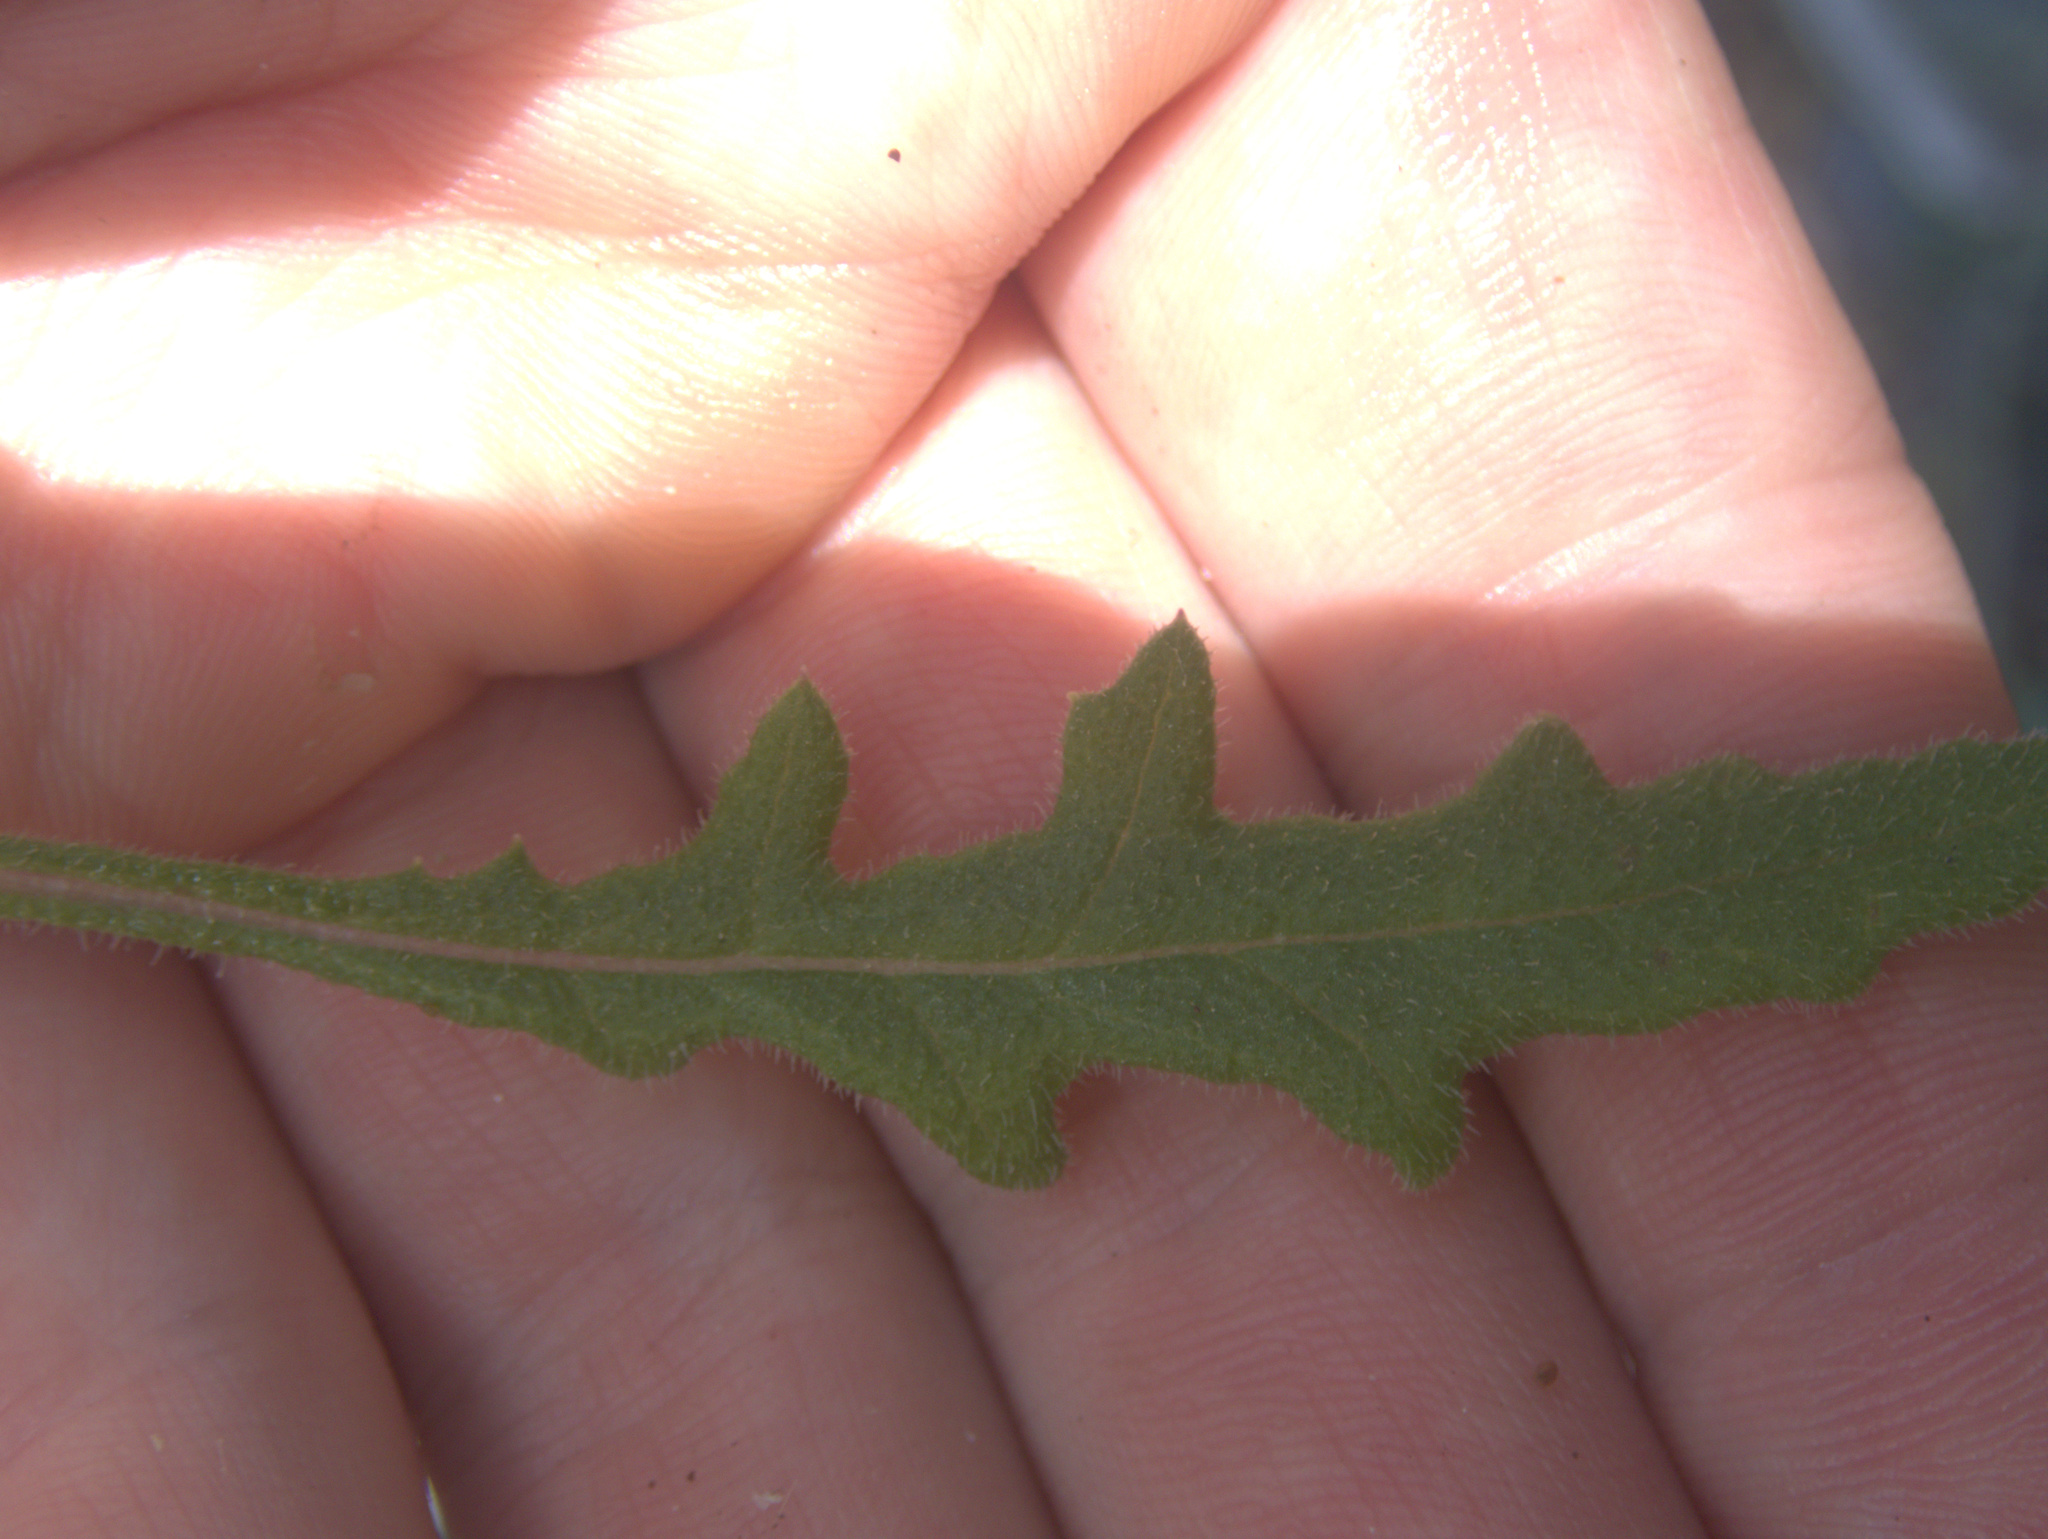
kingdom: Plantae
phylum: Tracheophyta
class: Magnoliopsida
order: Asterales
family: Asteraceae
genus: Senecio
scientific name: Senecio hispidulus
